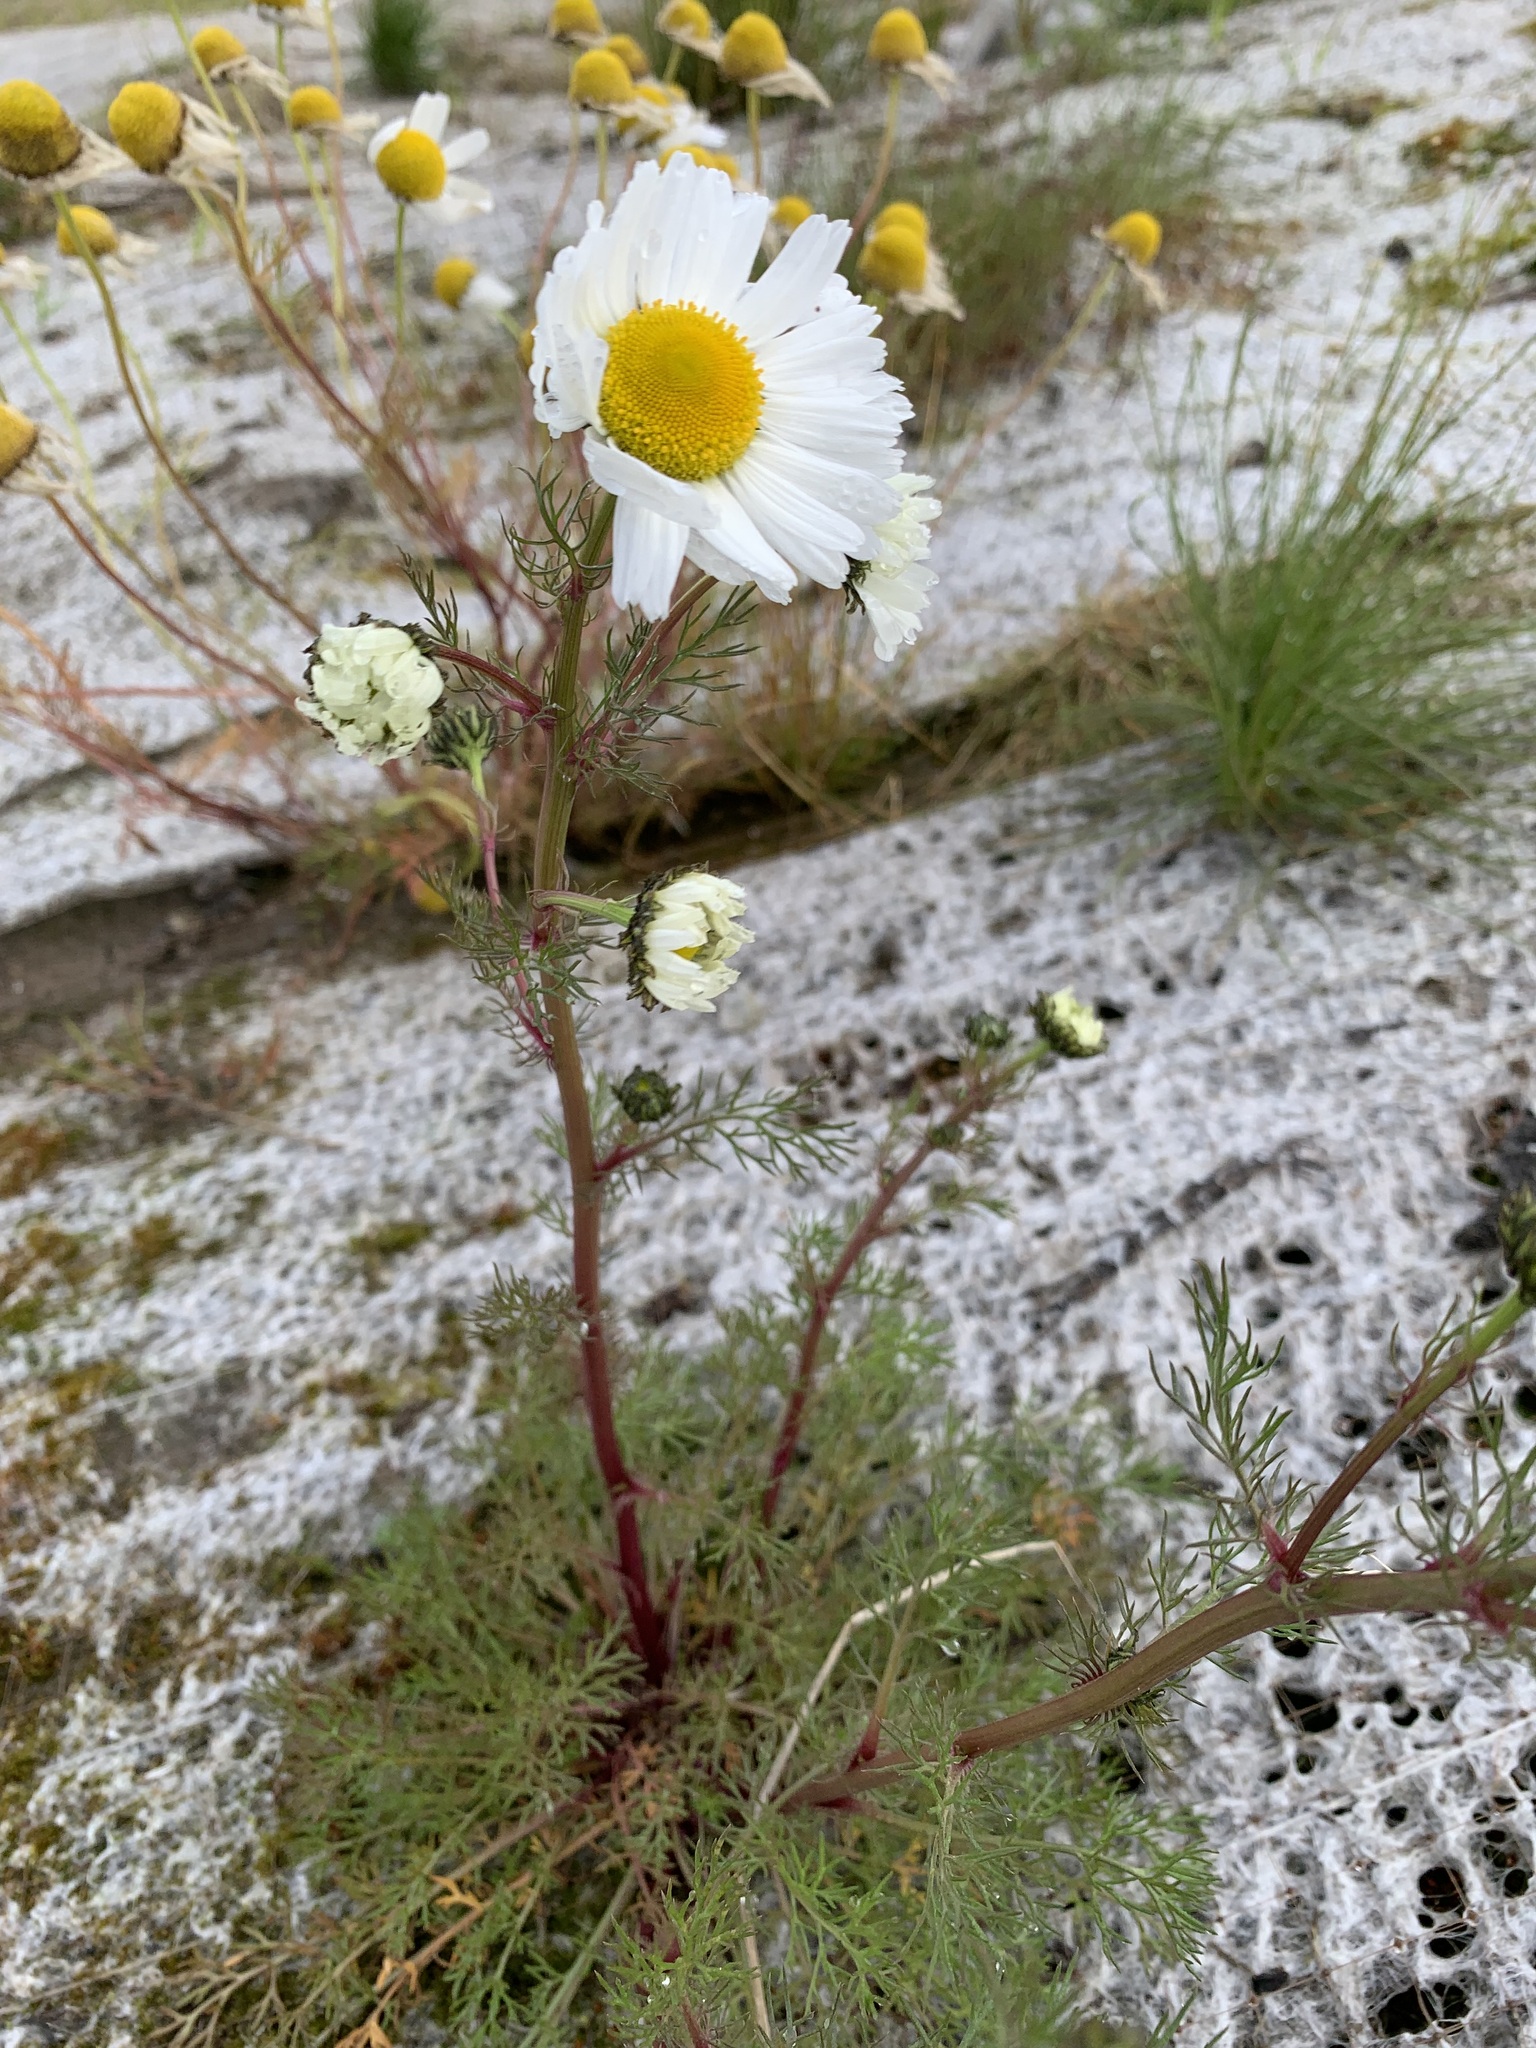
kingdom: Plantae
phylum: Tracheophyta
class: Magnoliopsida
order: Asterales
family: Asteraceae
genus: Tripleurospermum
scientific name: Tripleurospermum hookeri
